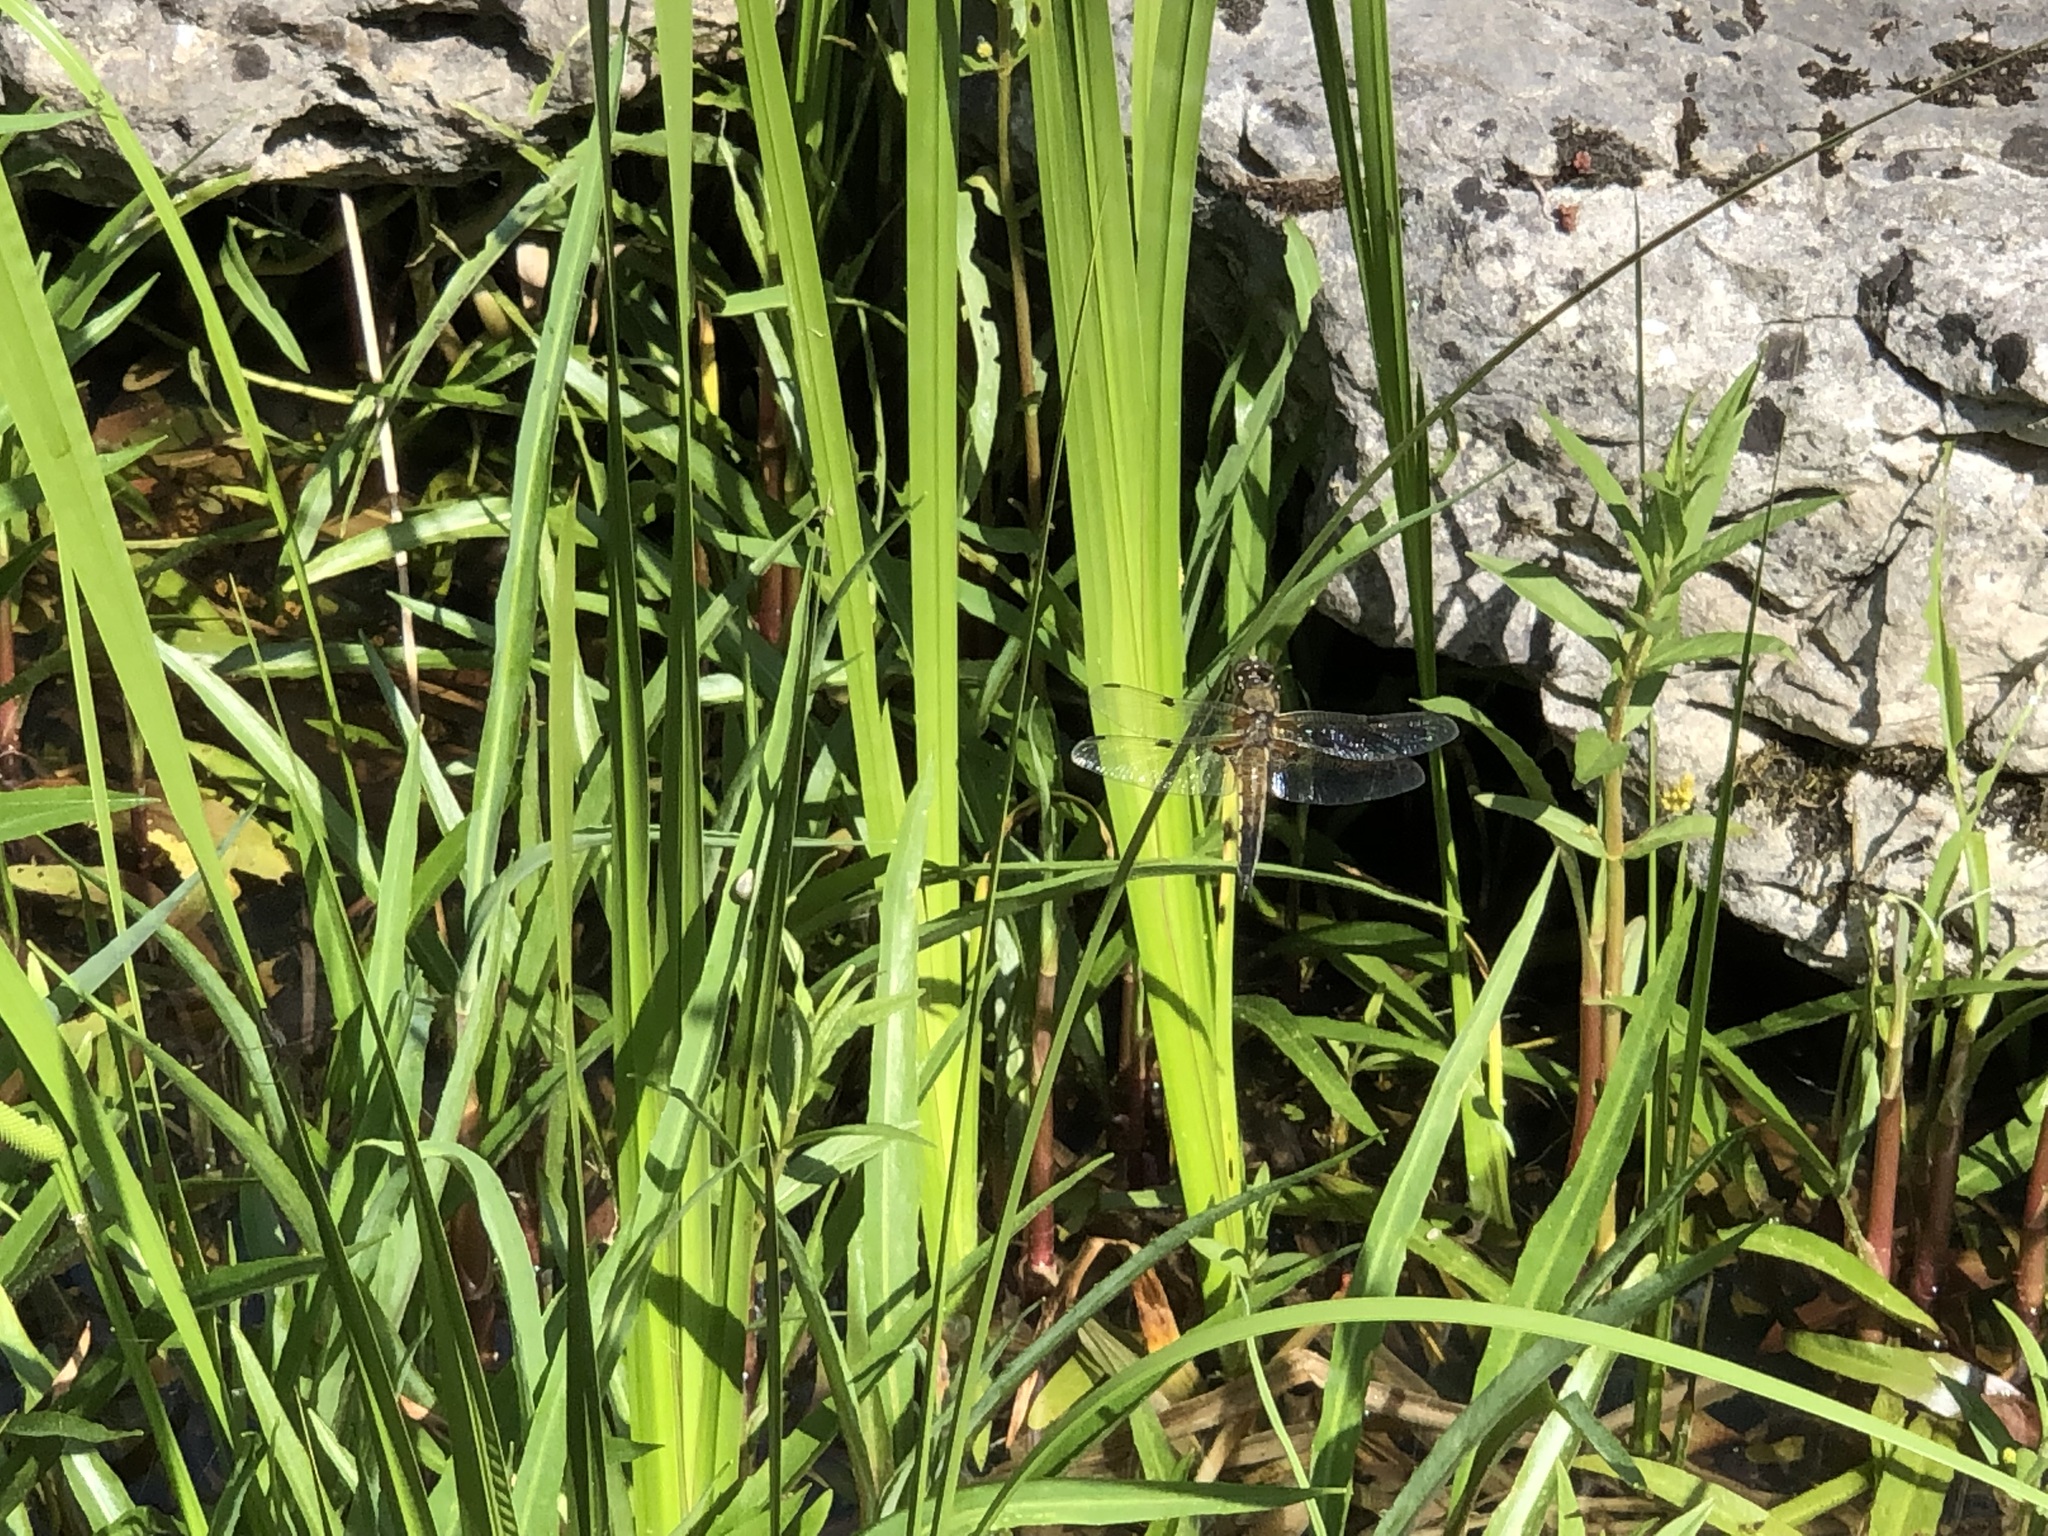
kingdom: Animalia
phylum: Arthropoda
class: Insecta
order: Odonata
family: Libellulidae
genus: Libellula
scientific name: Libellula quadrimaculata
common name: Four-spotted chaser
